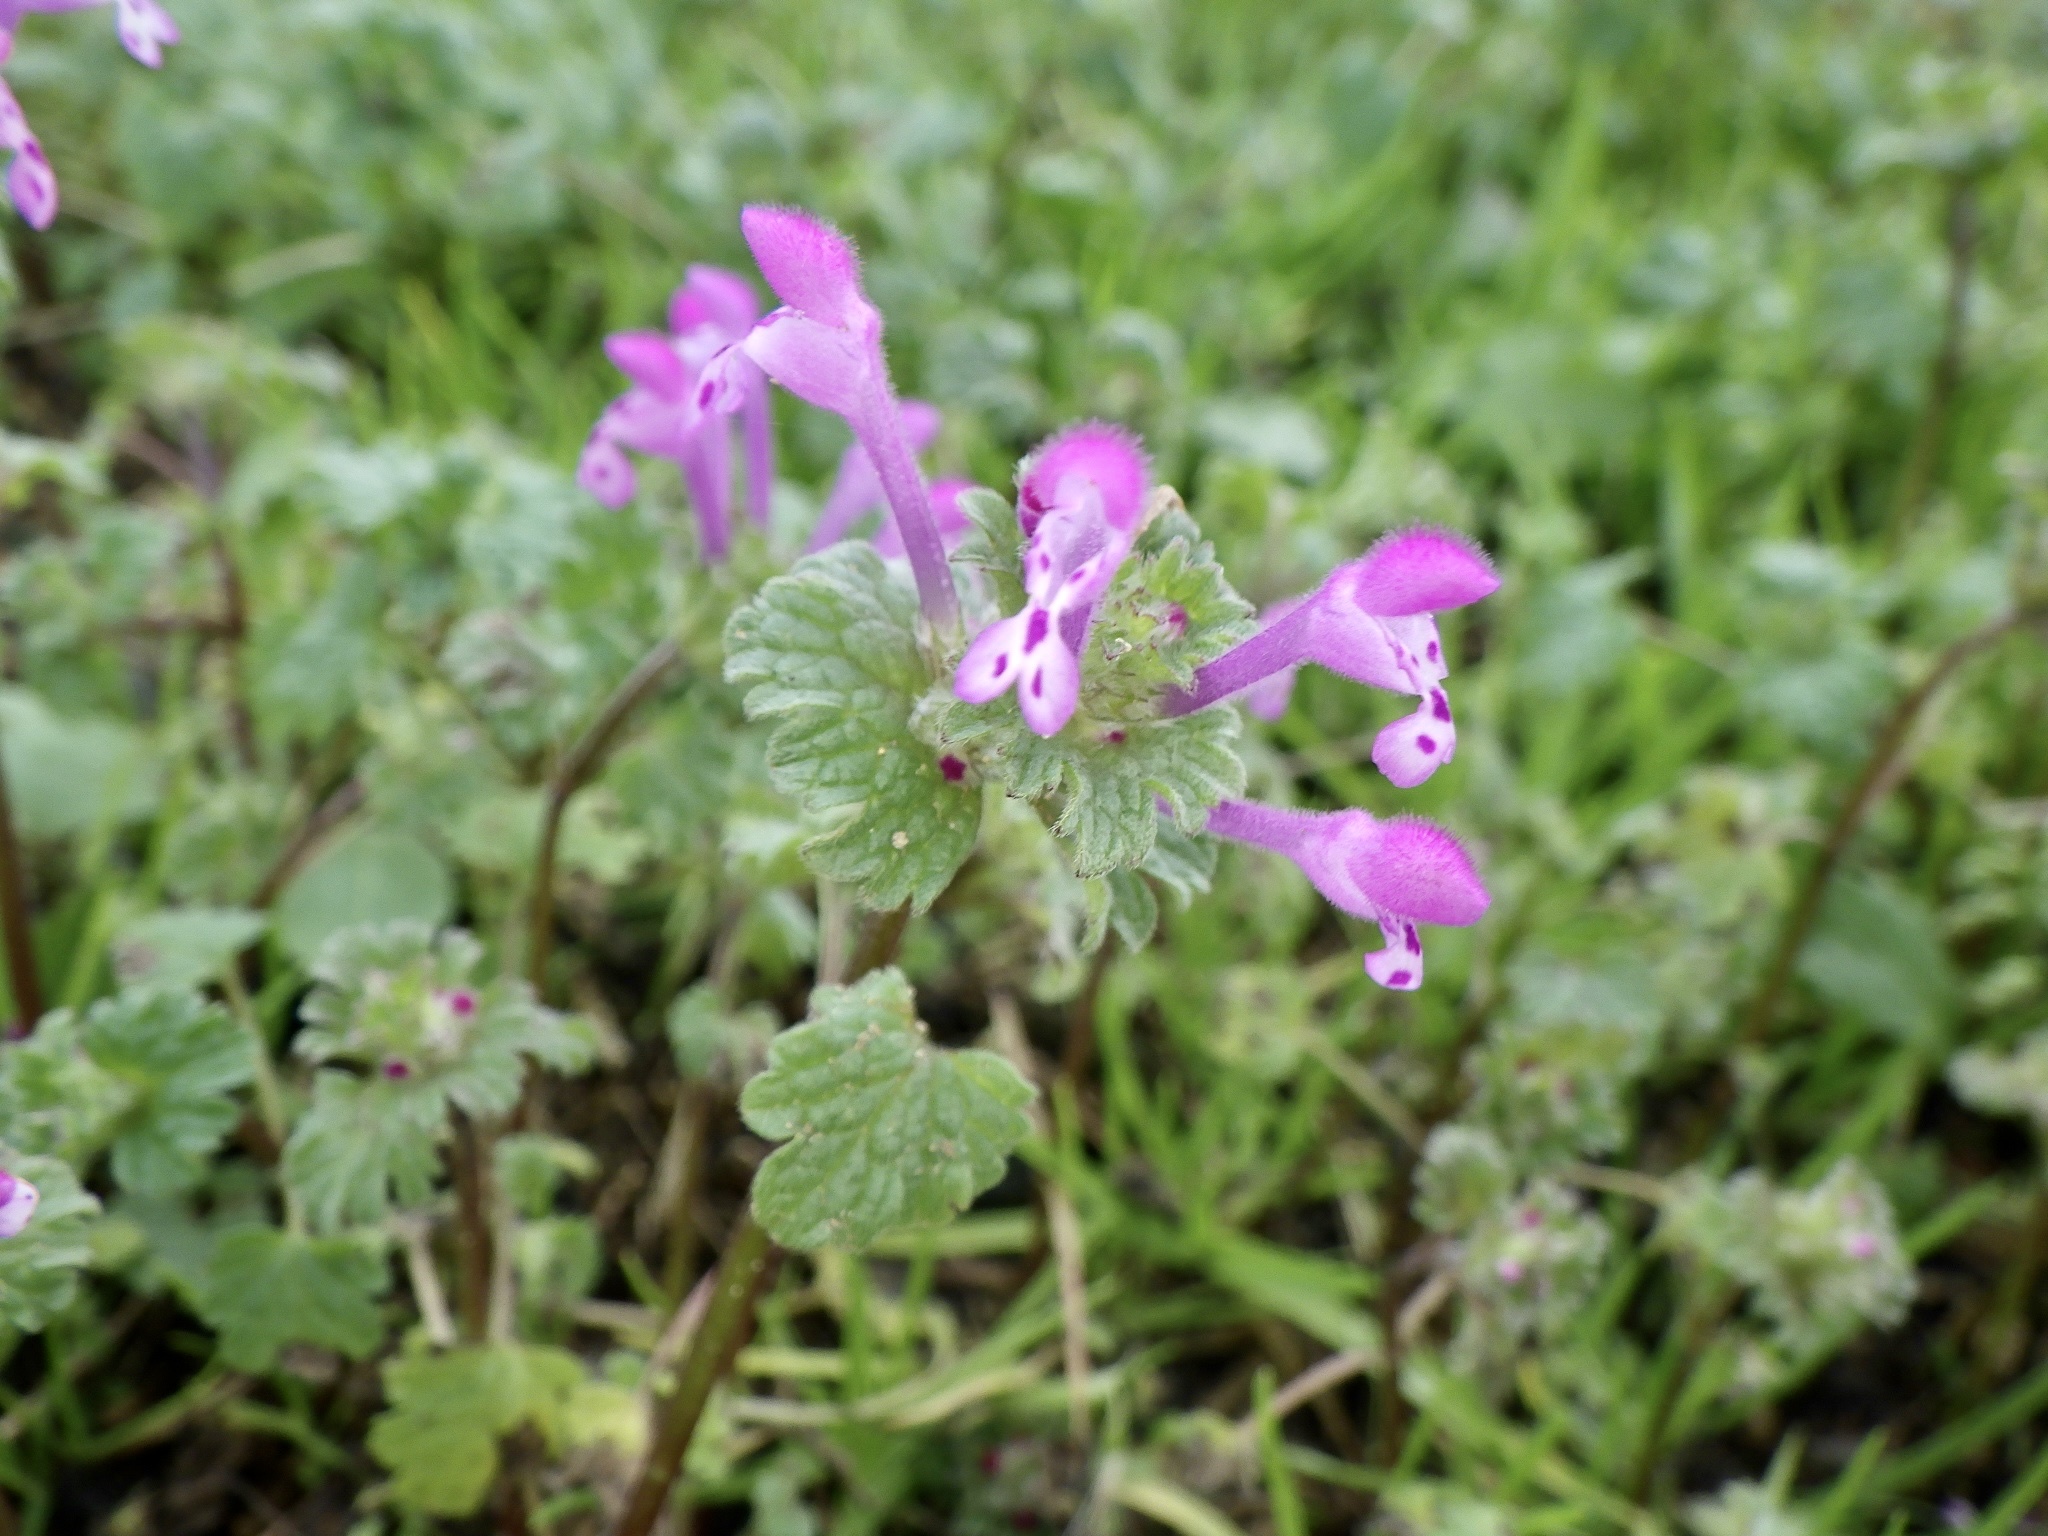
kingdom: Plantae
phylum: Tracheophyta
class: Magnoliopsida
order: Lamiales
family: Lamiaceae
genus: Lamium
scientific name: Lamium amplexicaule
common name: Henbit dead-nettle
